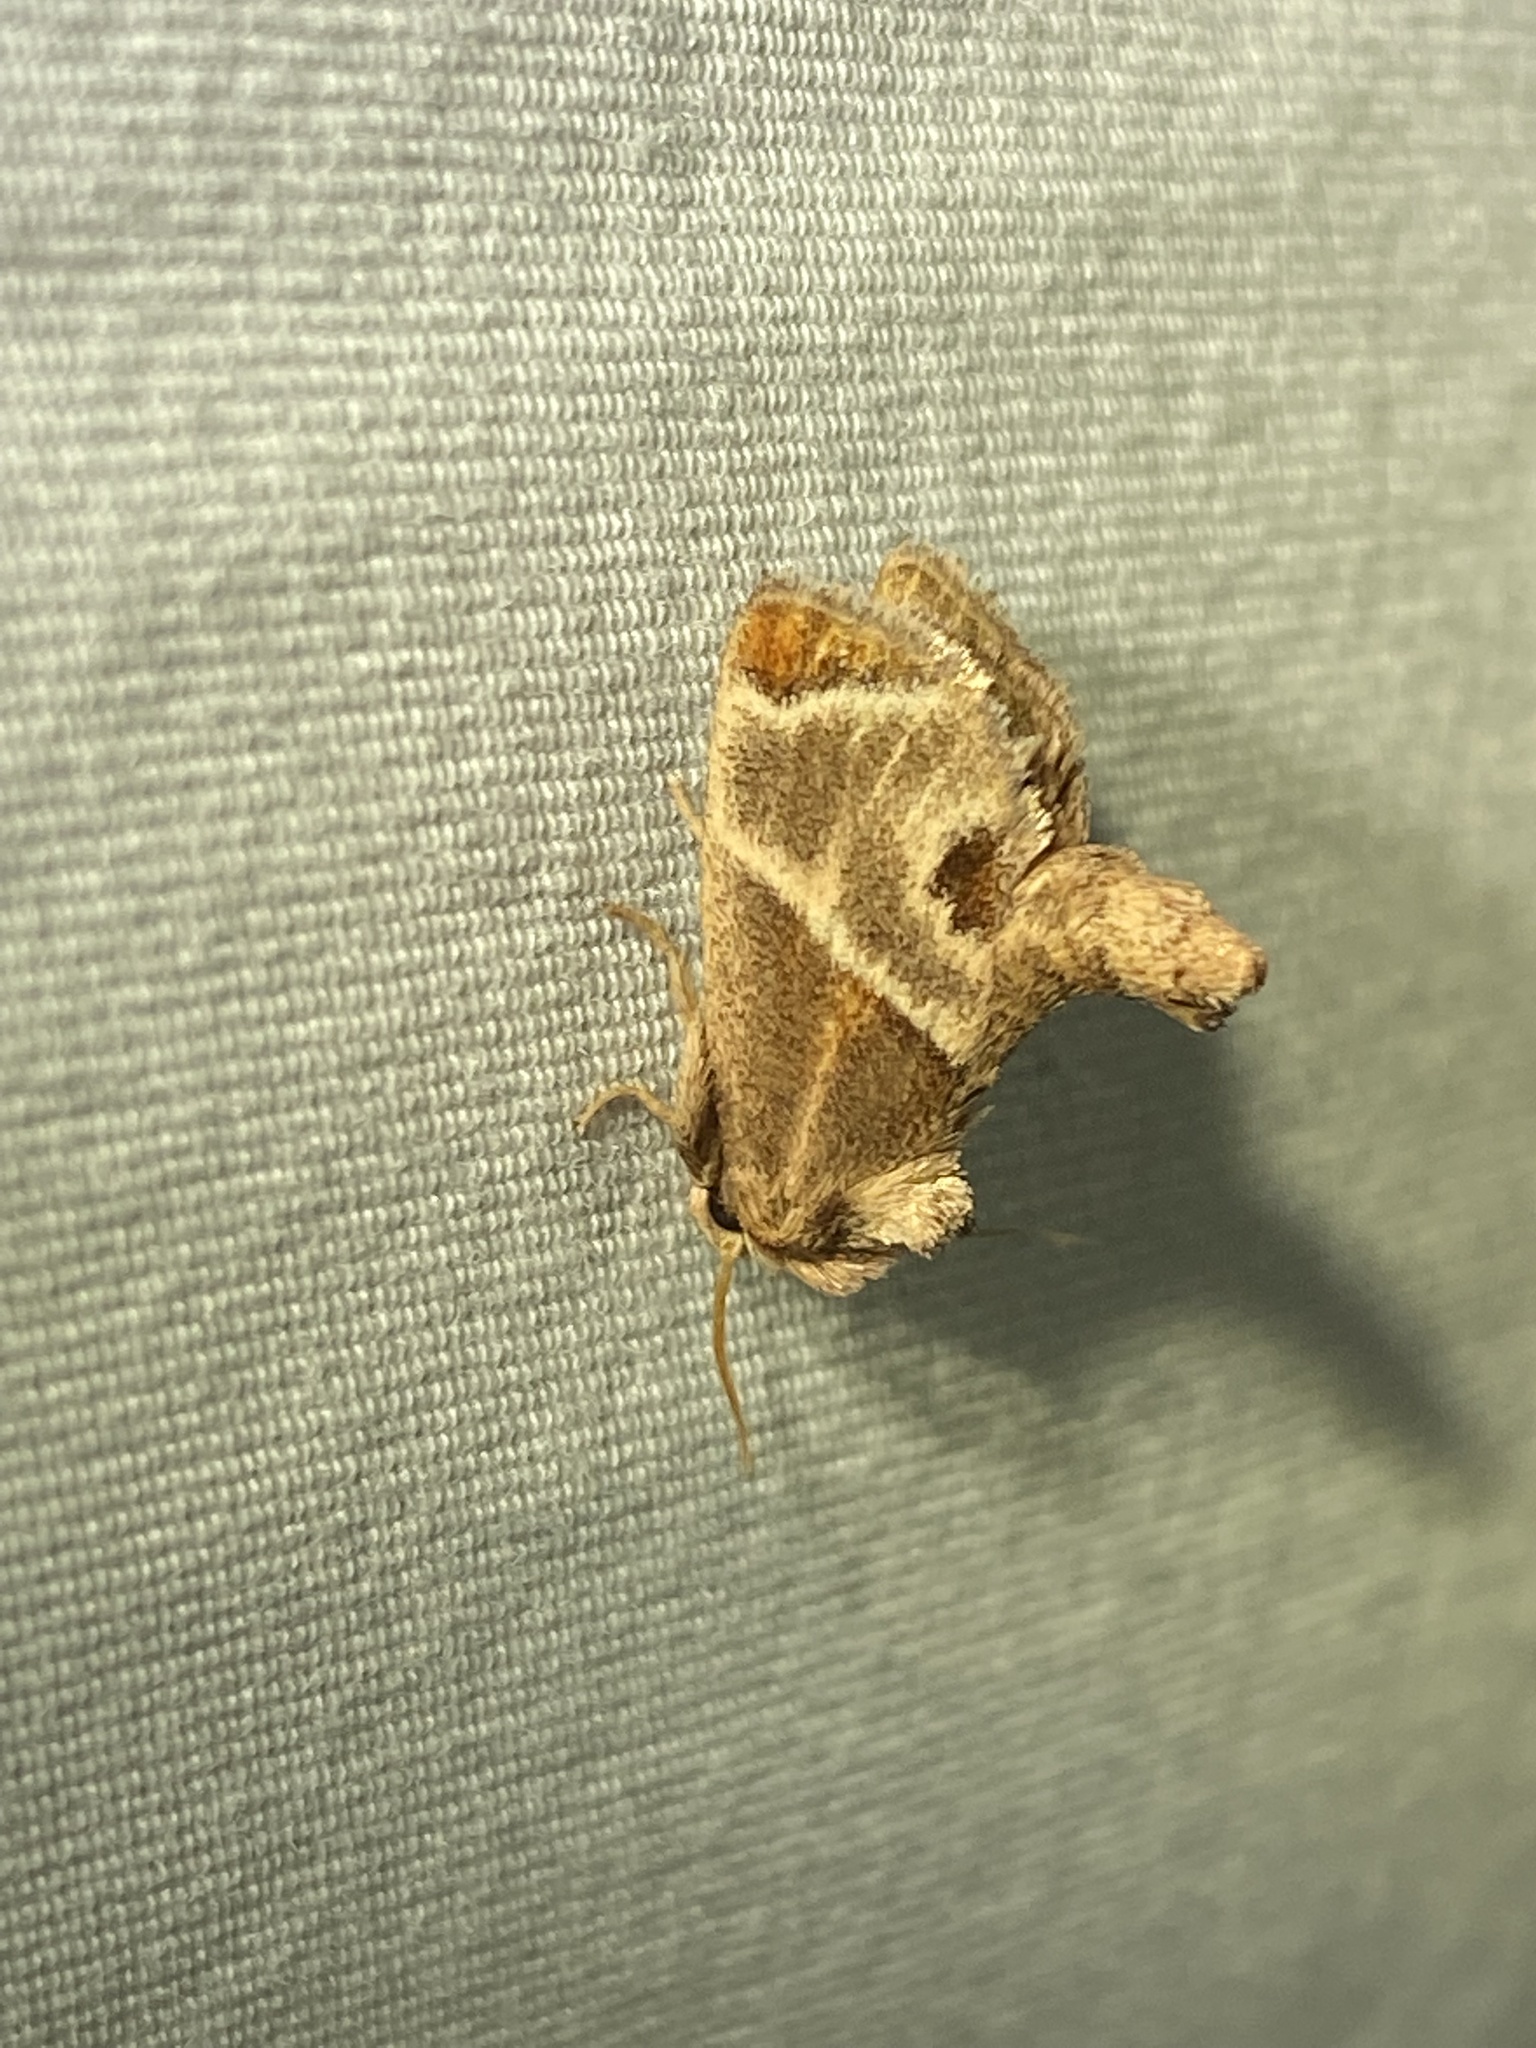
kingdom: Animalia
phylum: Arthropoda
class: Insecta
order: Lepidoptera
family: Limacodidae
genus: Apoda
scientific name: Apoda biguttata
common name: Shagreened slug moth
